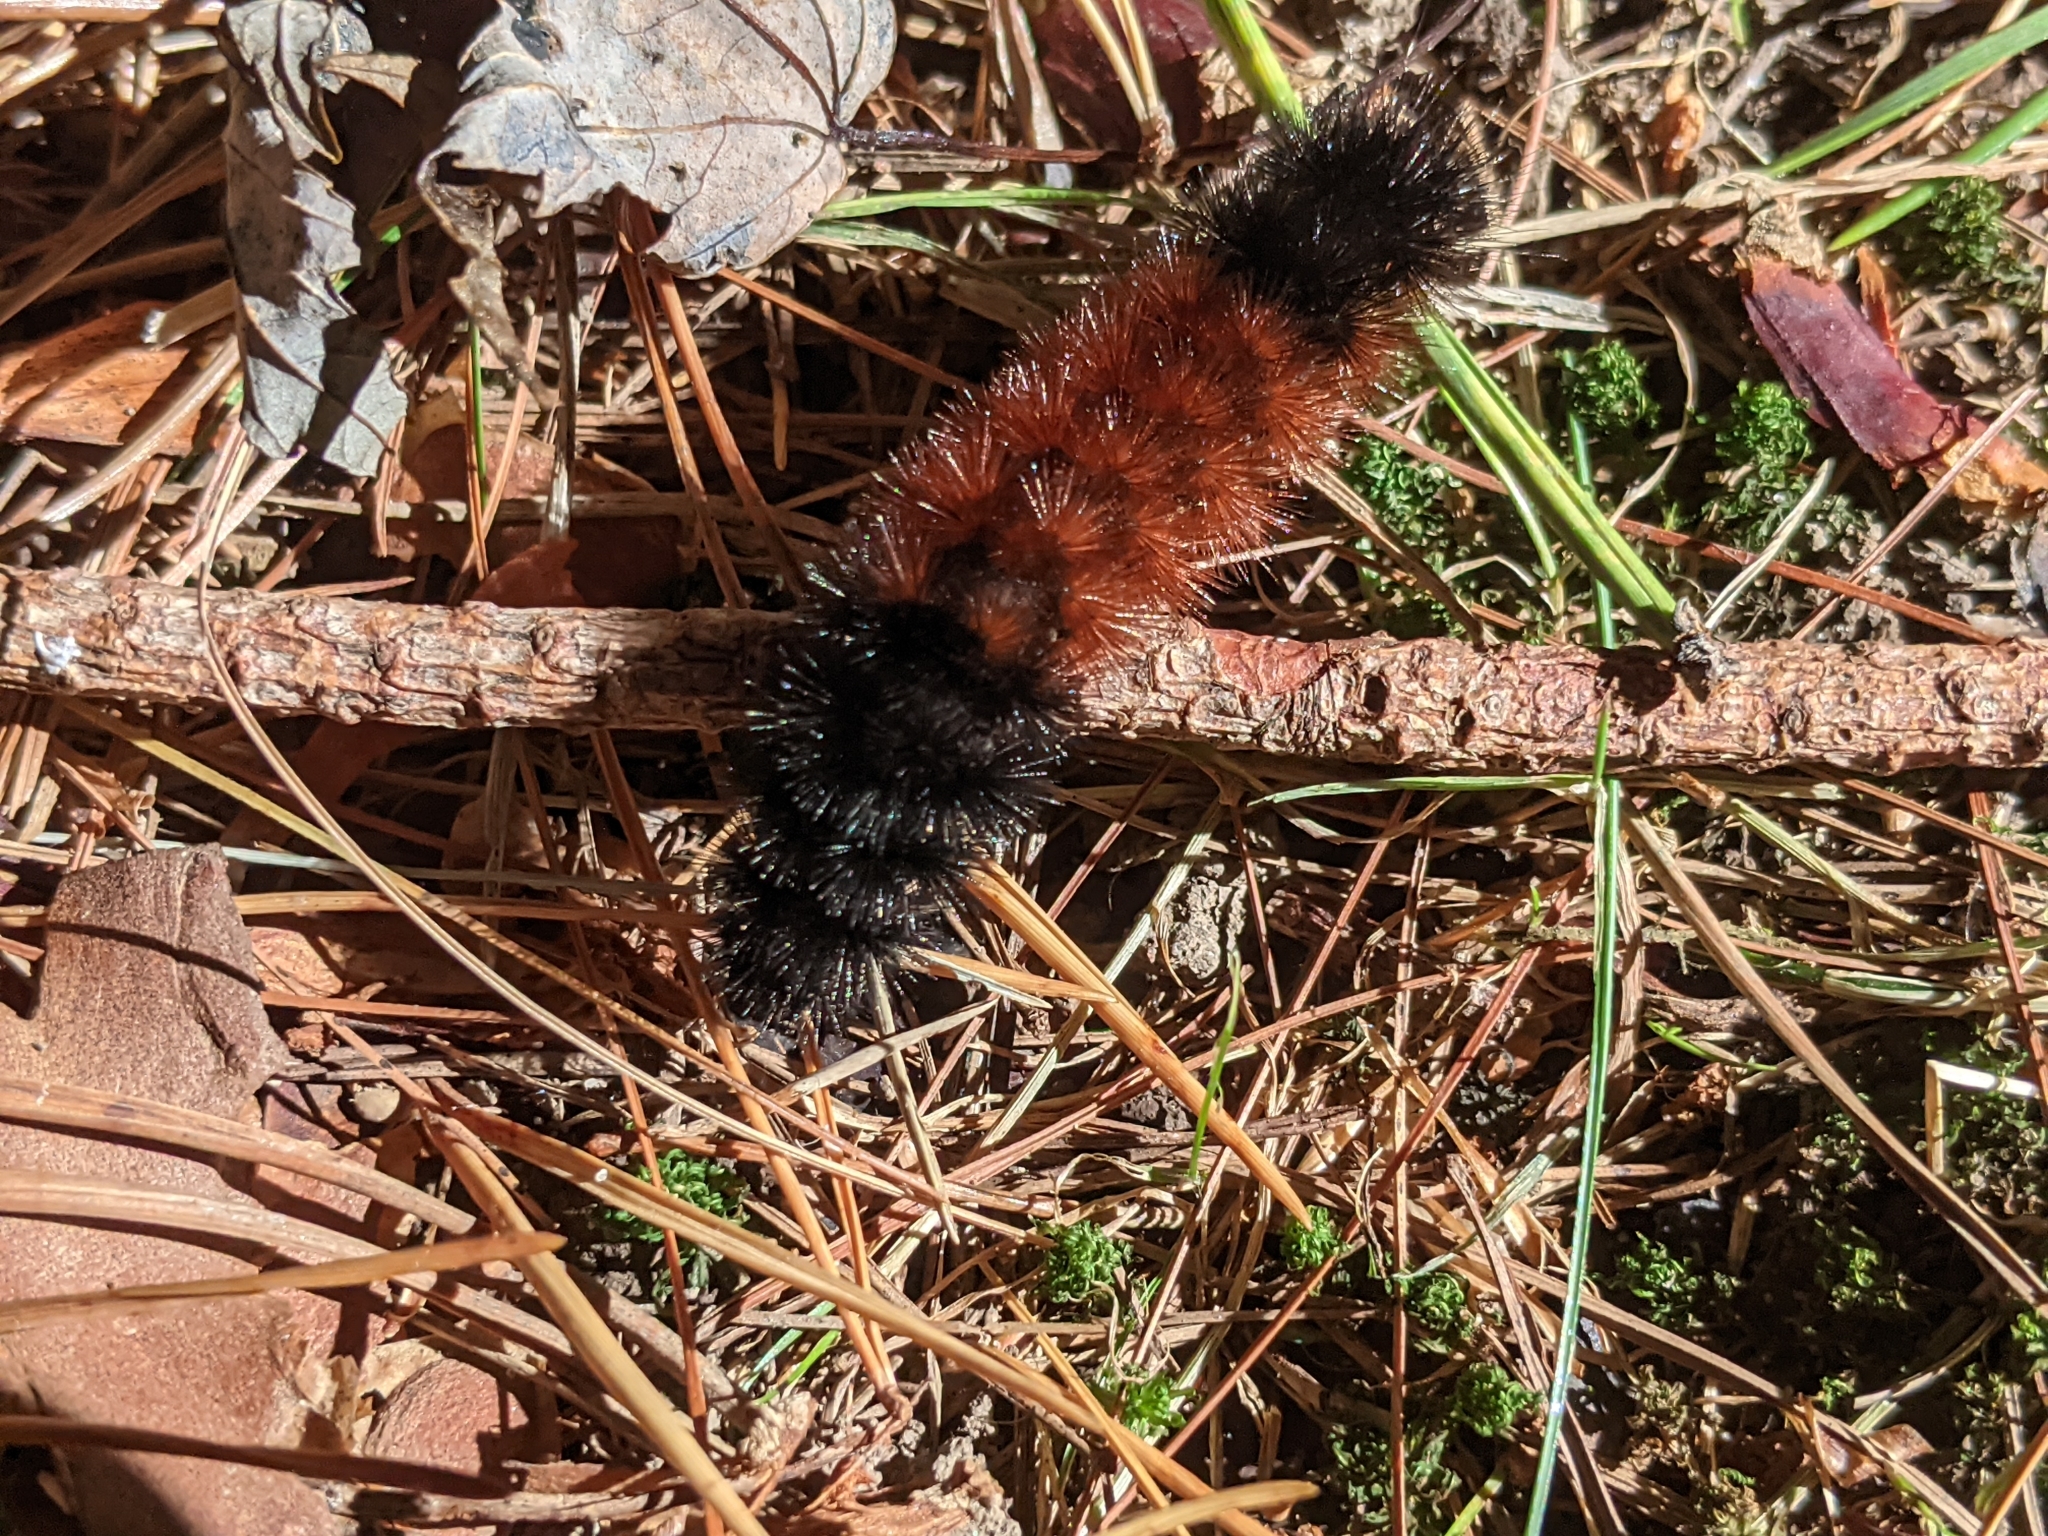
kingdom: Animalia
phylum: Arthropoda
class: Insecta
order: Lepidoptera
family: Erebidae
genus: Pyrrharctia
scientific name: Pyrrharctia isabella
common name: Isabella tiger moth
